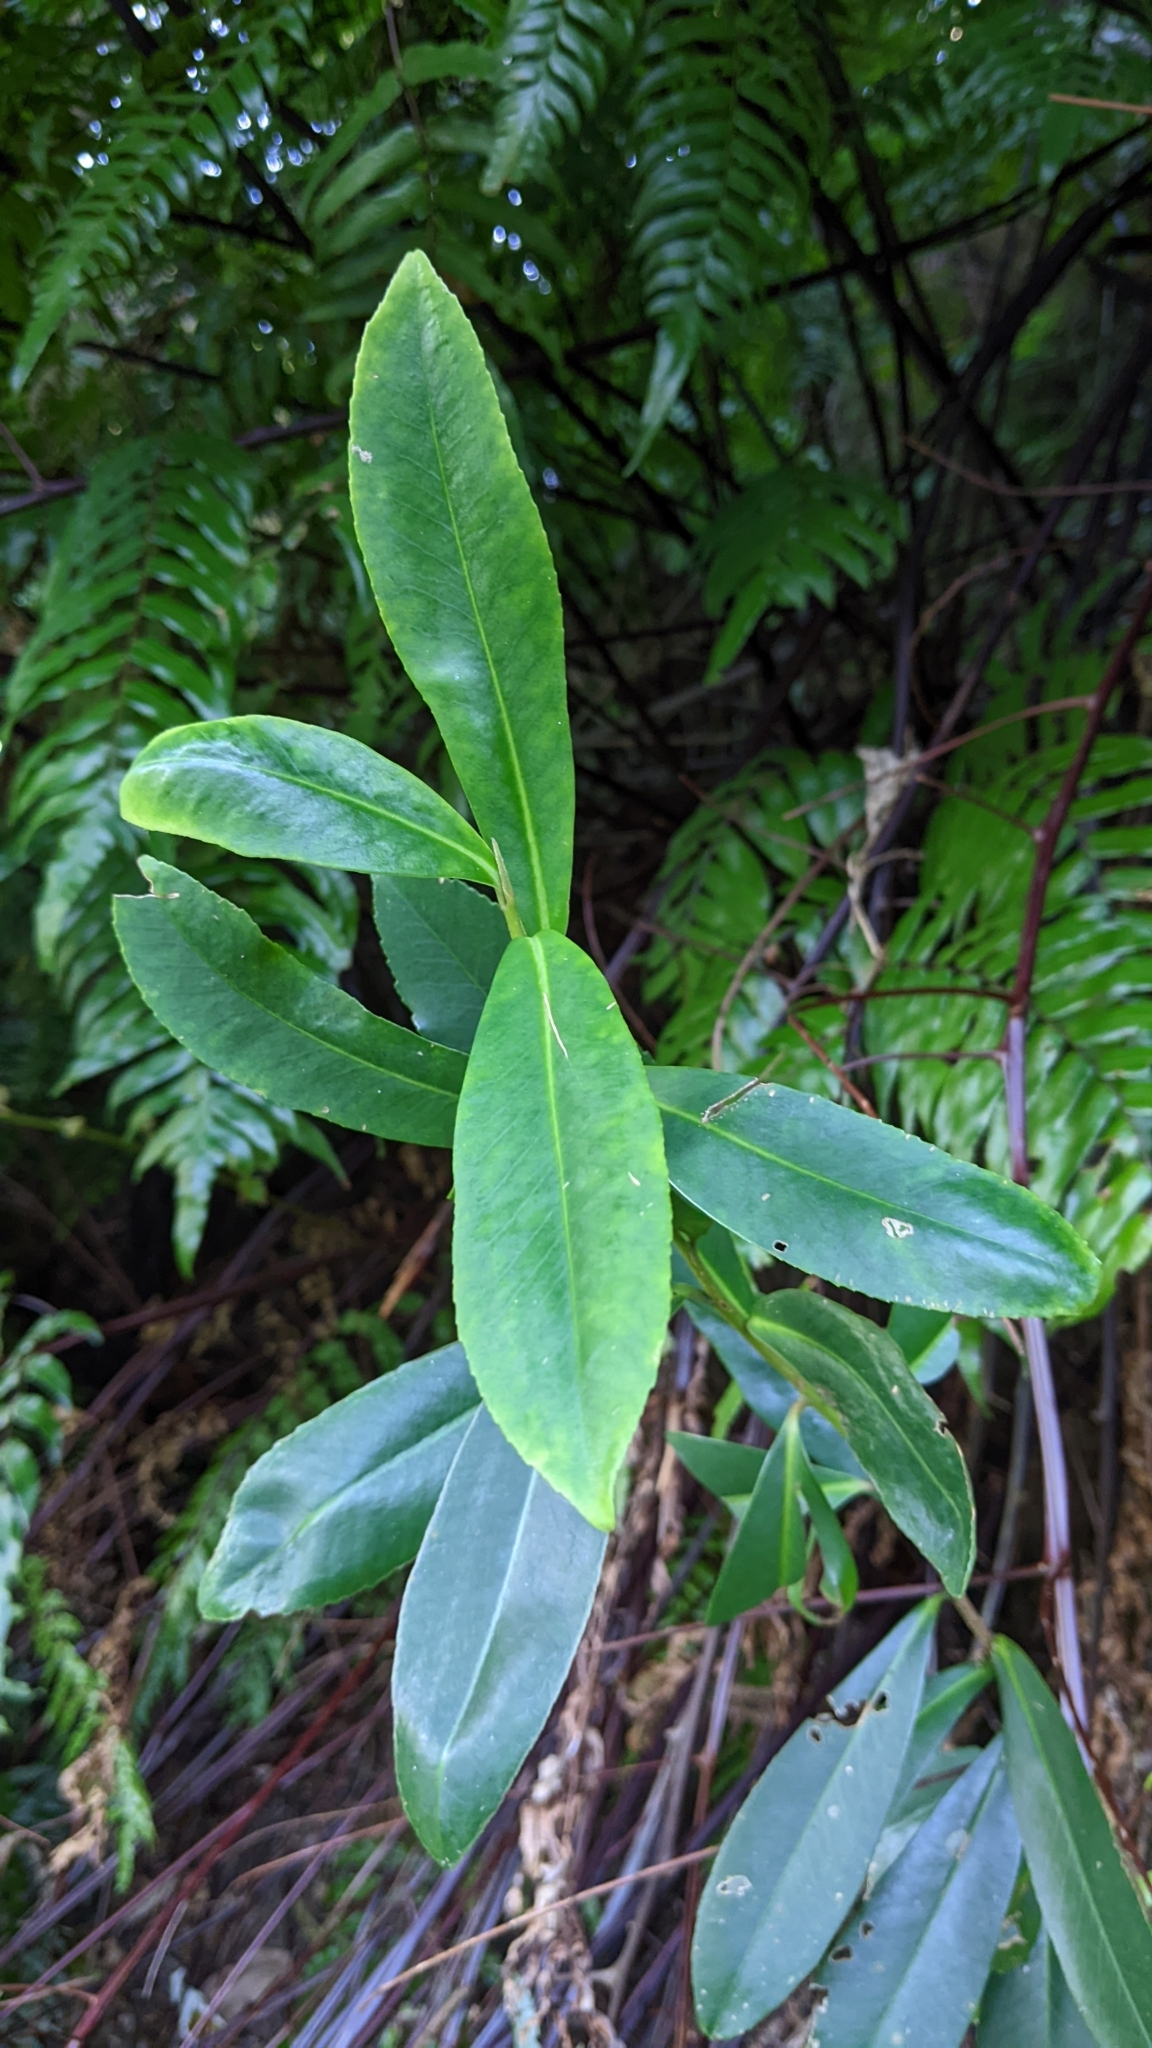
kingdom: Plantae
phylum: Tracheophyta
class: Magnoliopsida
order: Ericales
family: Theaceae
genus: Polyspora
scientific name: Polyspora axillaris
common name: Fried egg tree
